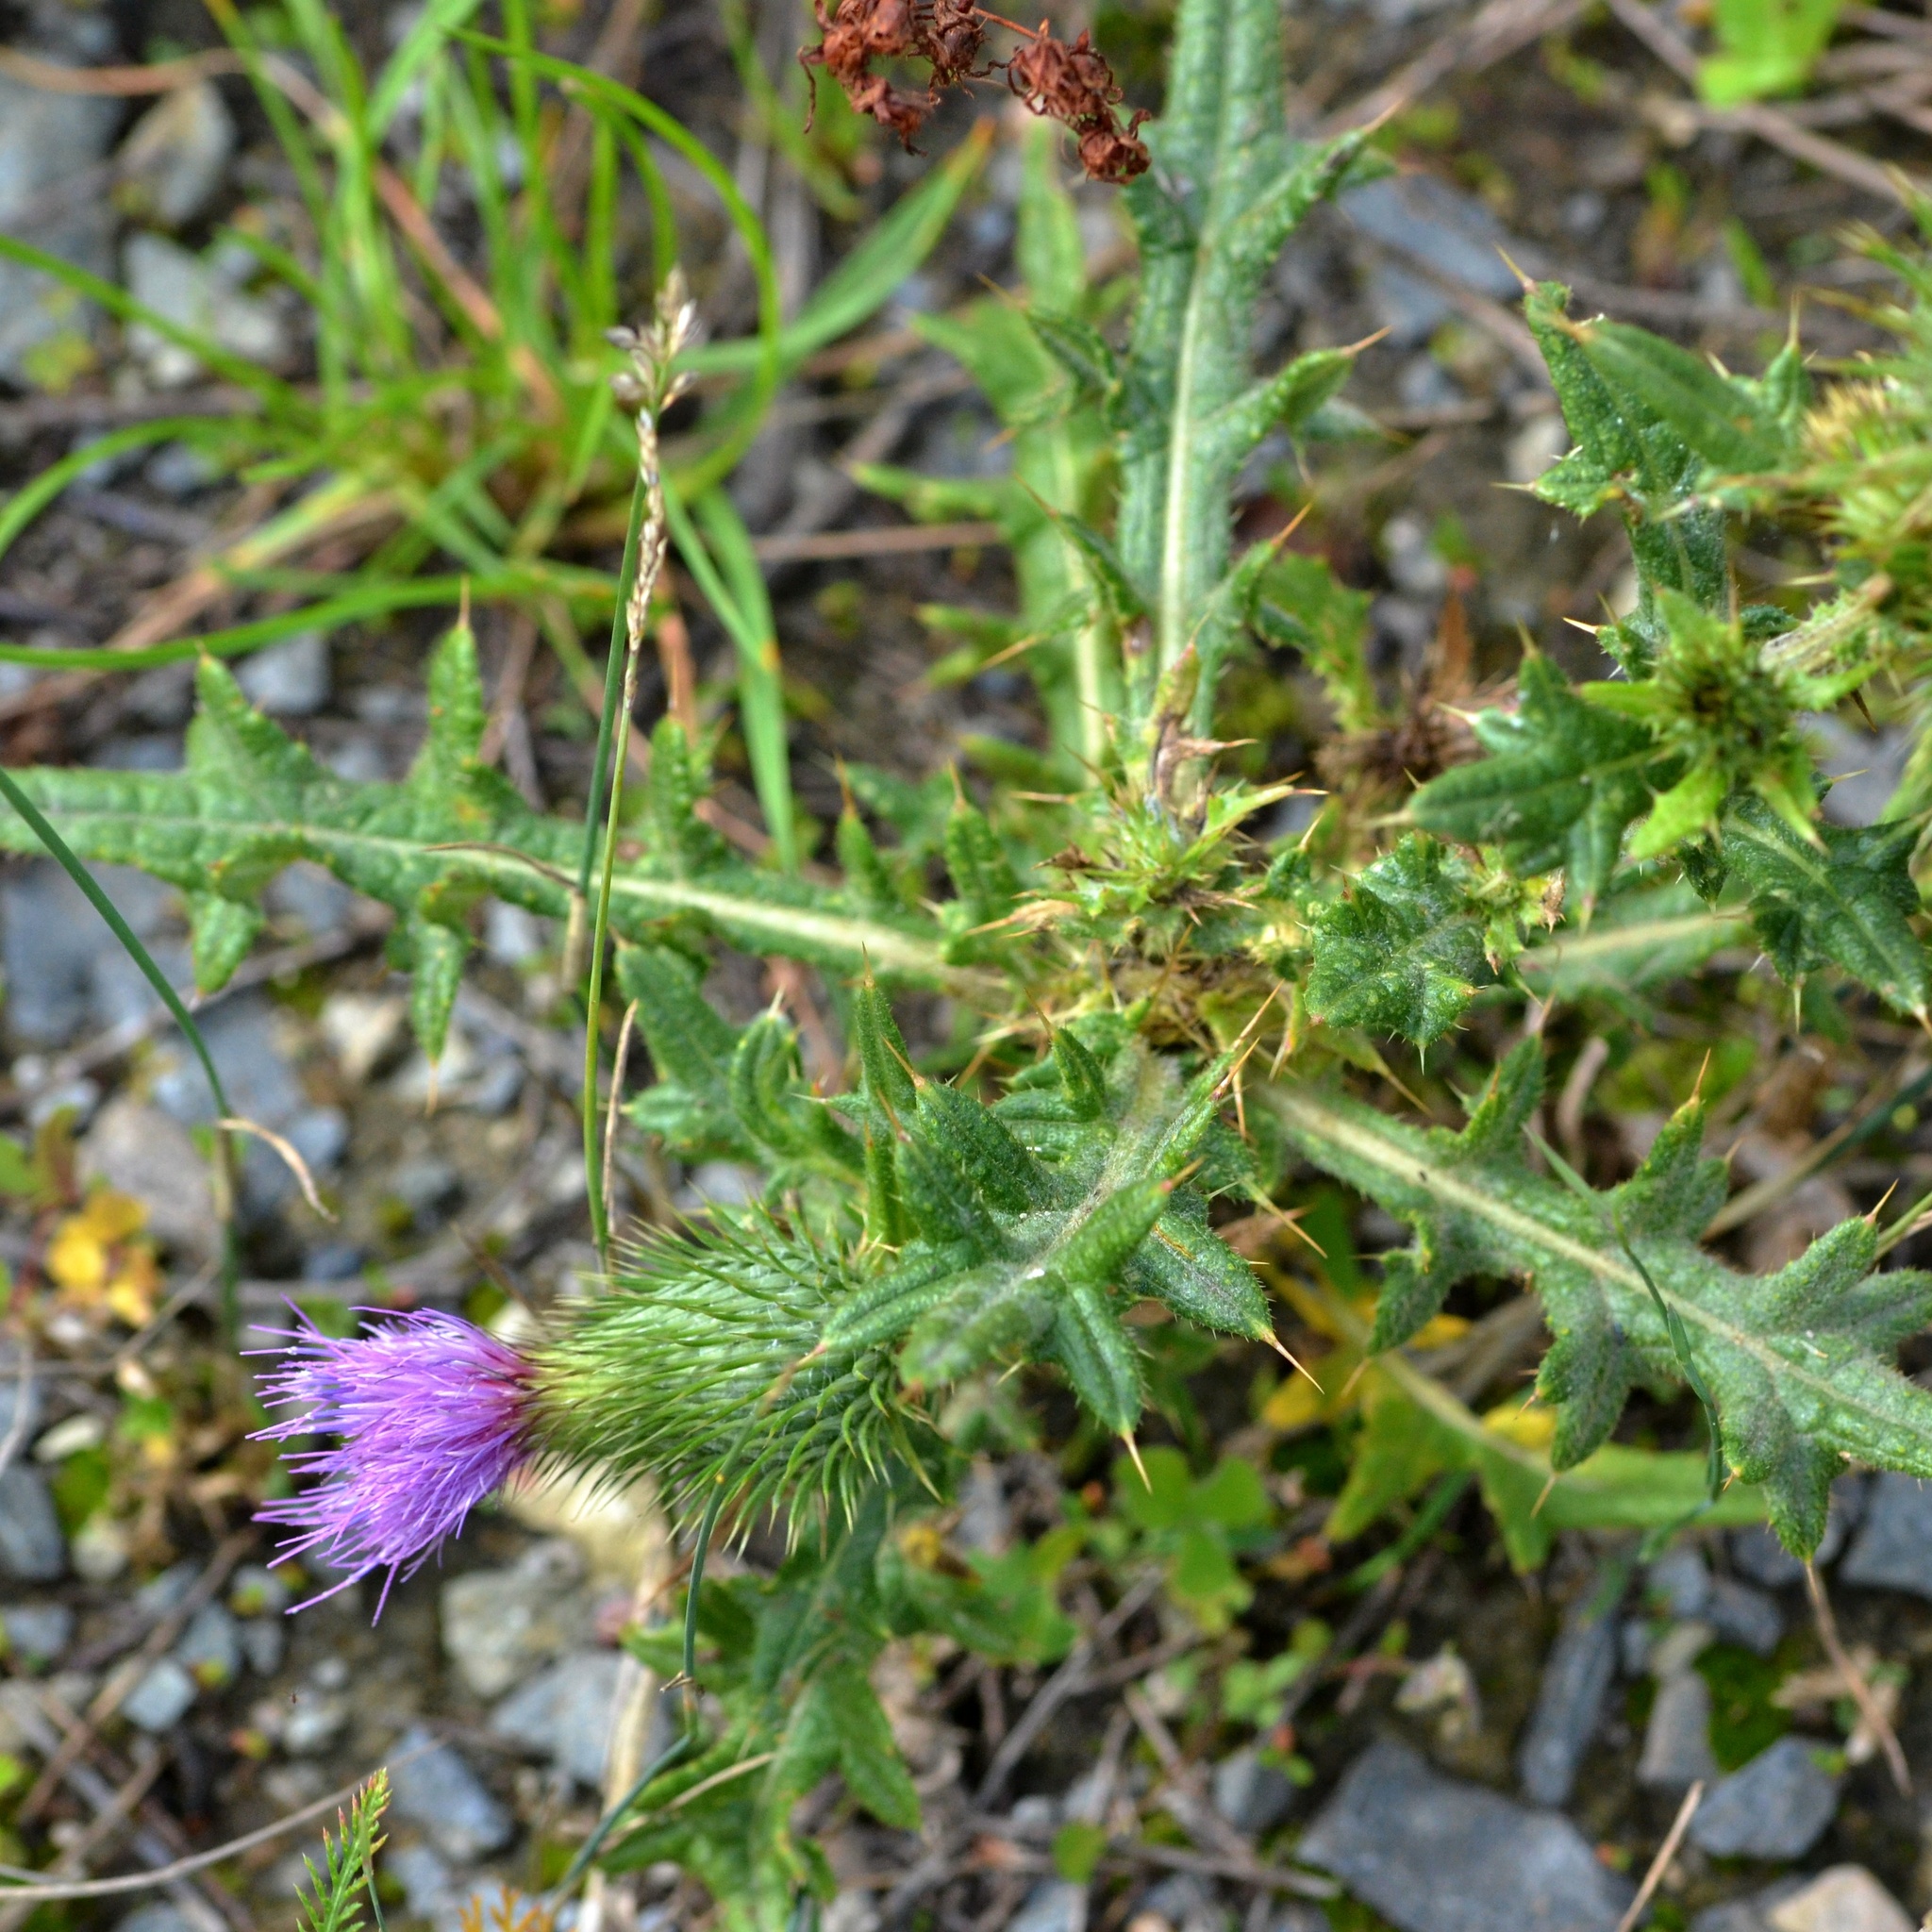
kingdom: Plantae
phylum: Tracheophyta
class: Magnoliopsida
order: Asterales
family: Asteraceae
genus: Cirsium
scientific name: Cirsium vulgare
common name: Bull thistle
